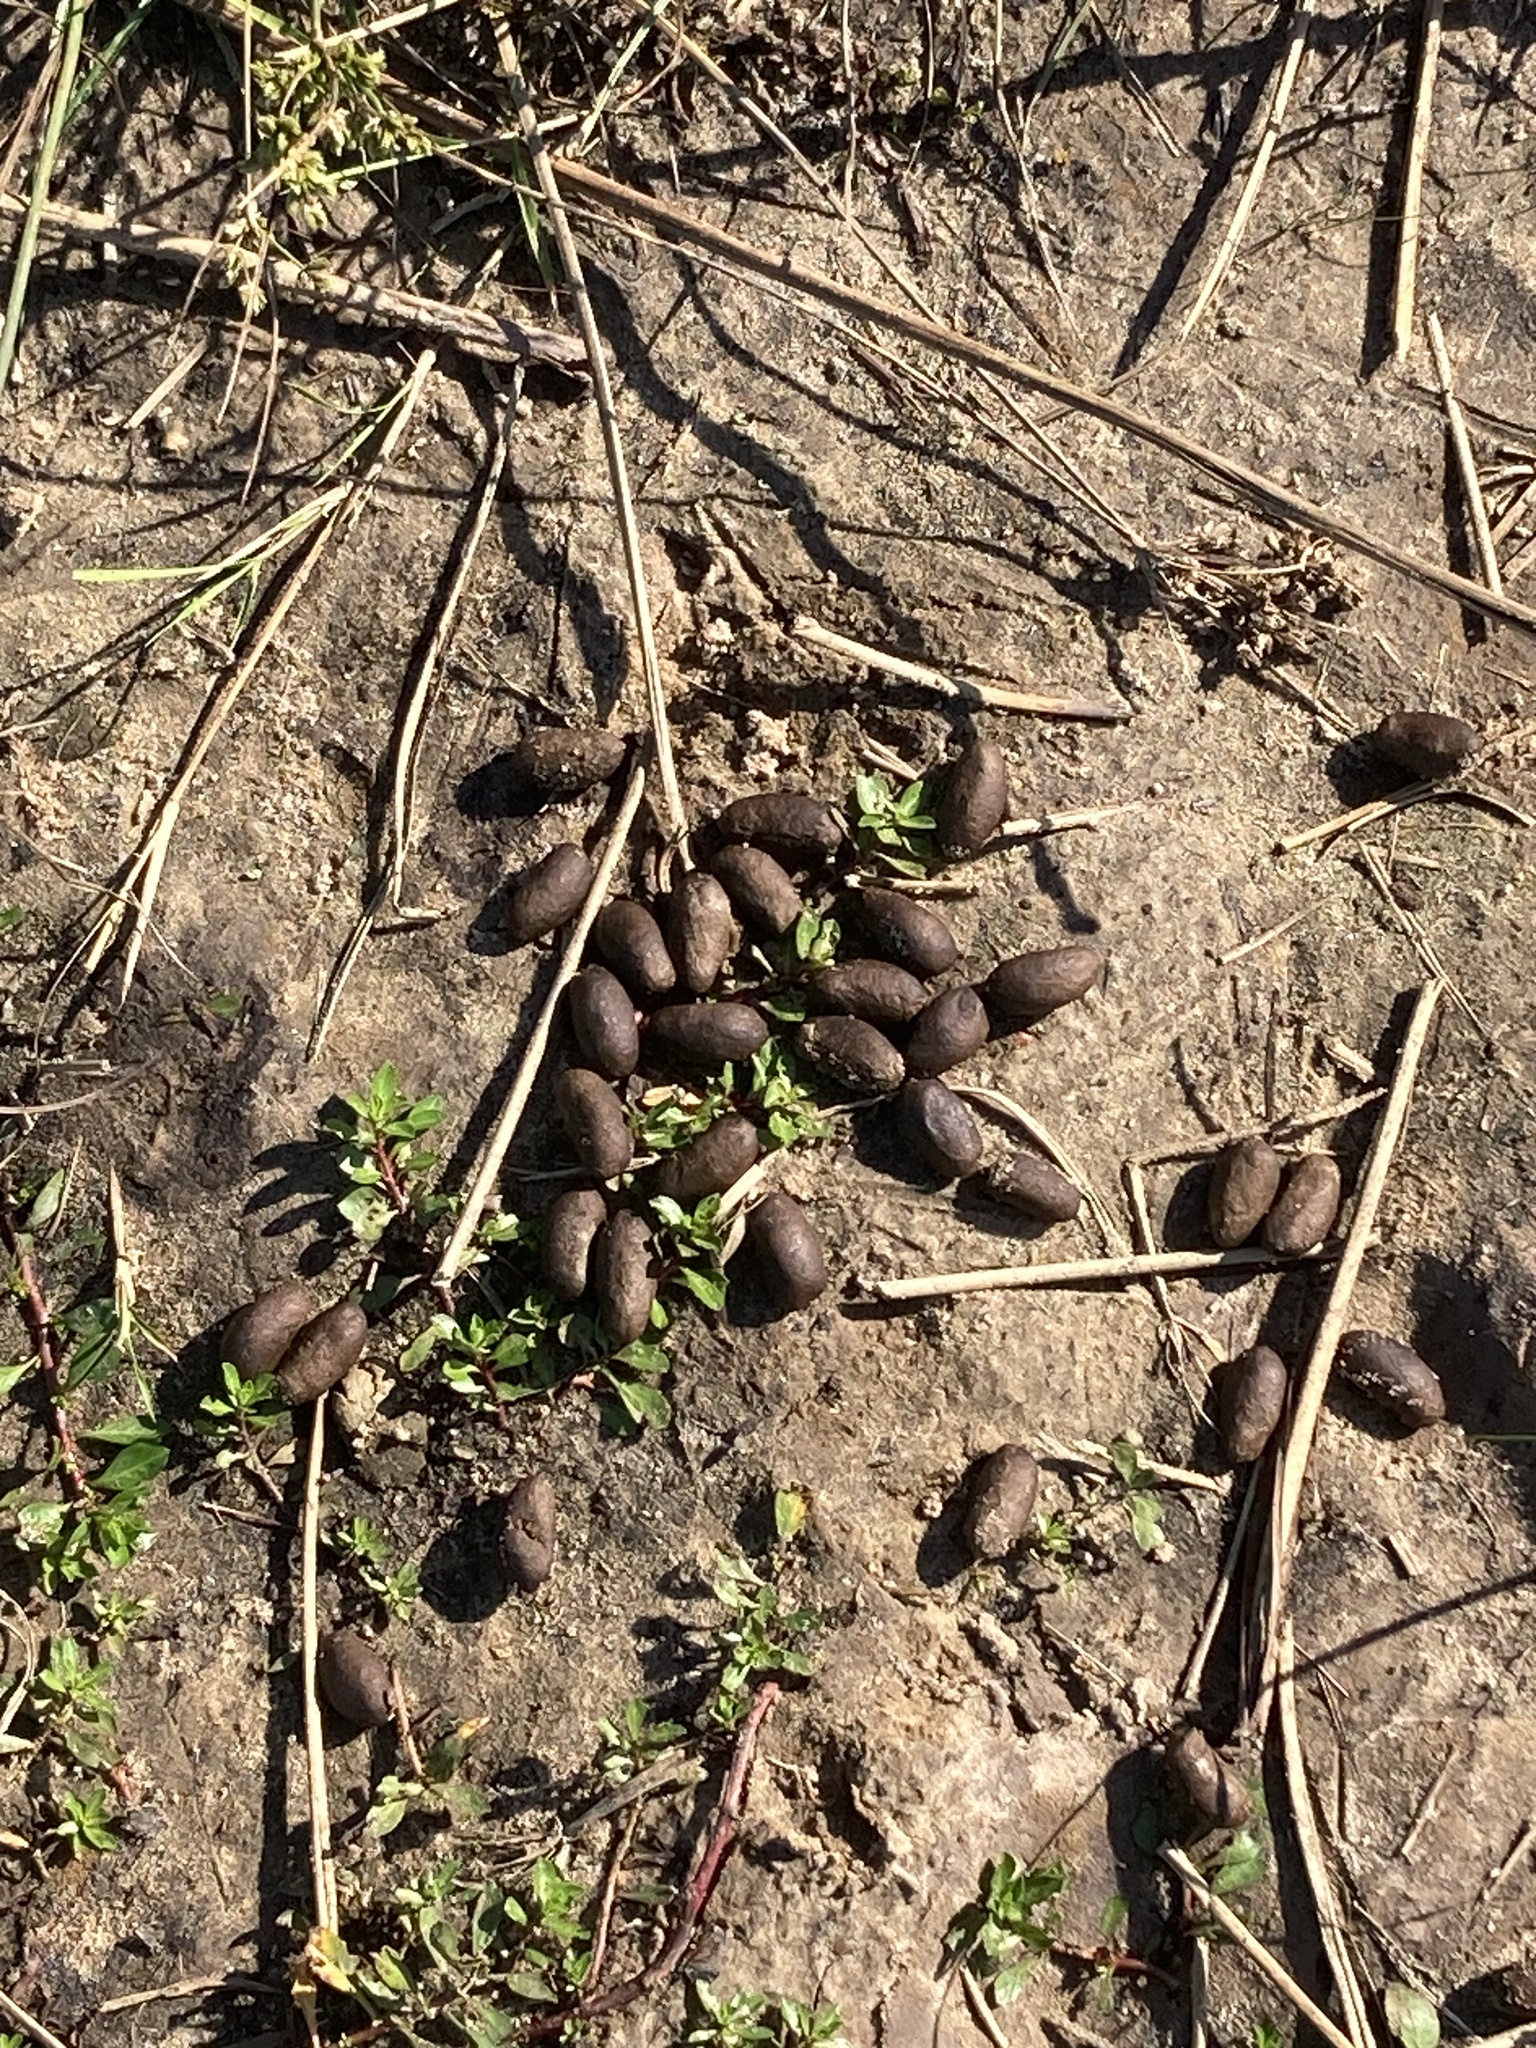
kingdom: Animalia
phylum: Chordata
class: Mammalia
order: Rodentia
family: Caviidae
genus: Hydrochoerus
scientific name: Hydrochoerus hydrochaeris
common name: Capybara
